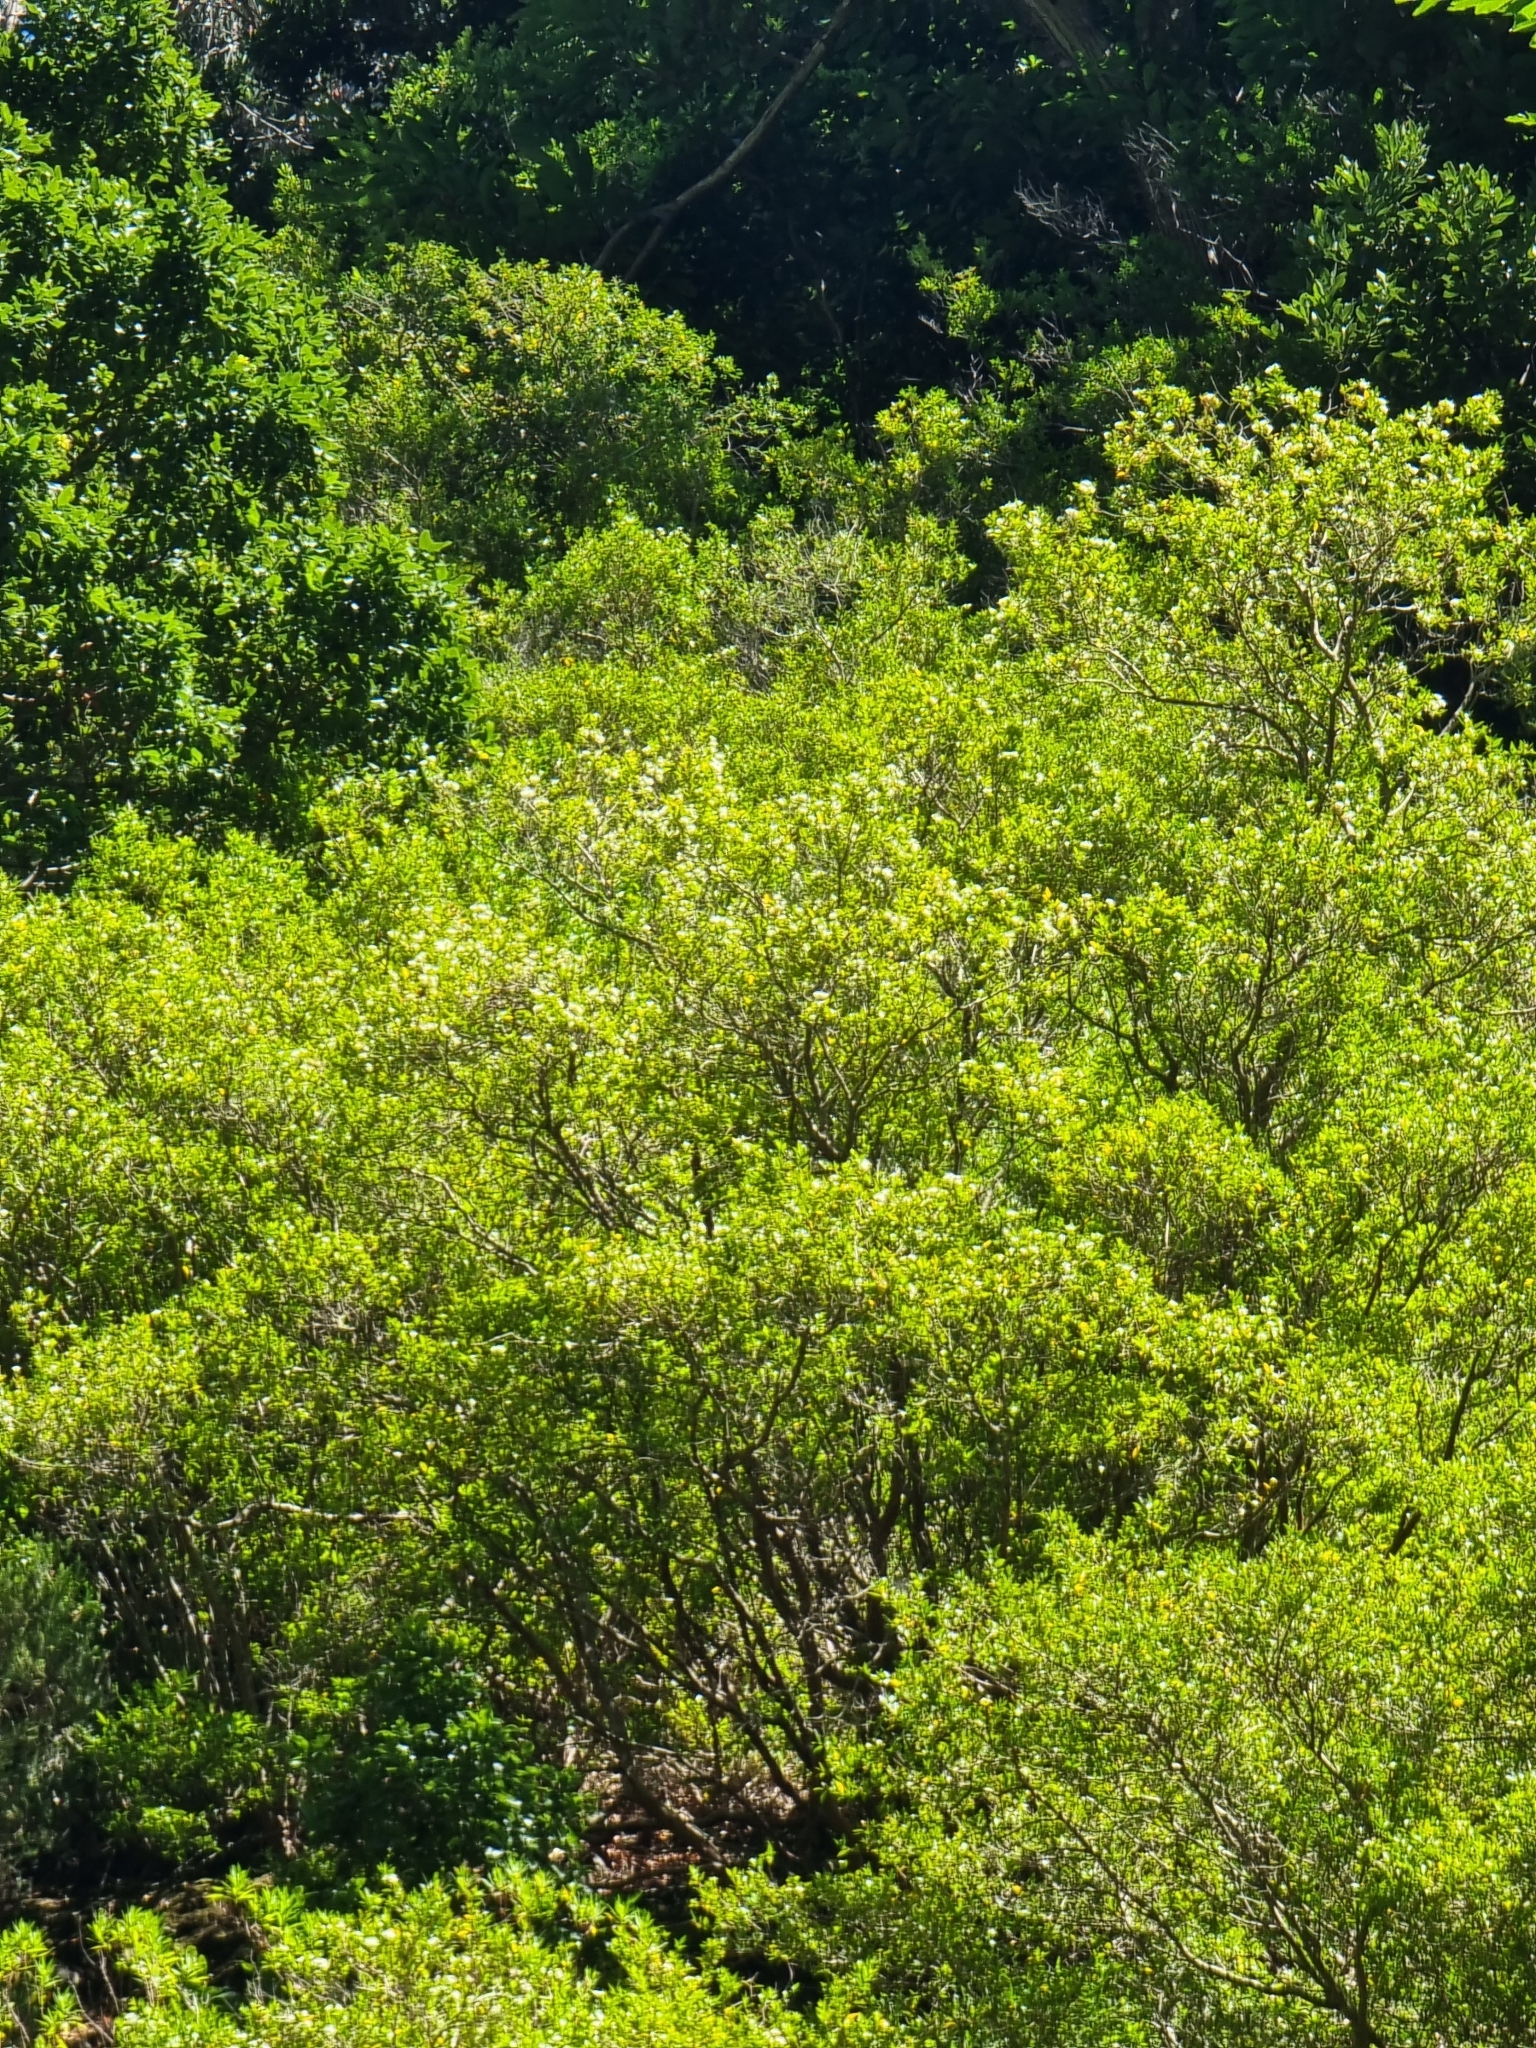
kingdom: Plantae
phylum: Tracheophyta
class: Magnoliopsida
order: Myrtales
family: Myrtaceae
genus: Myrtus
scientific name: Myrtus communis
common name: Myrtle
